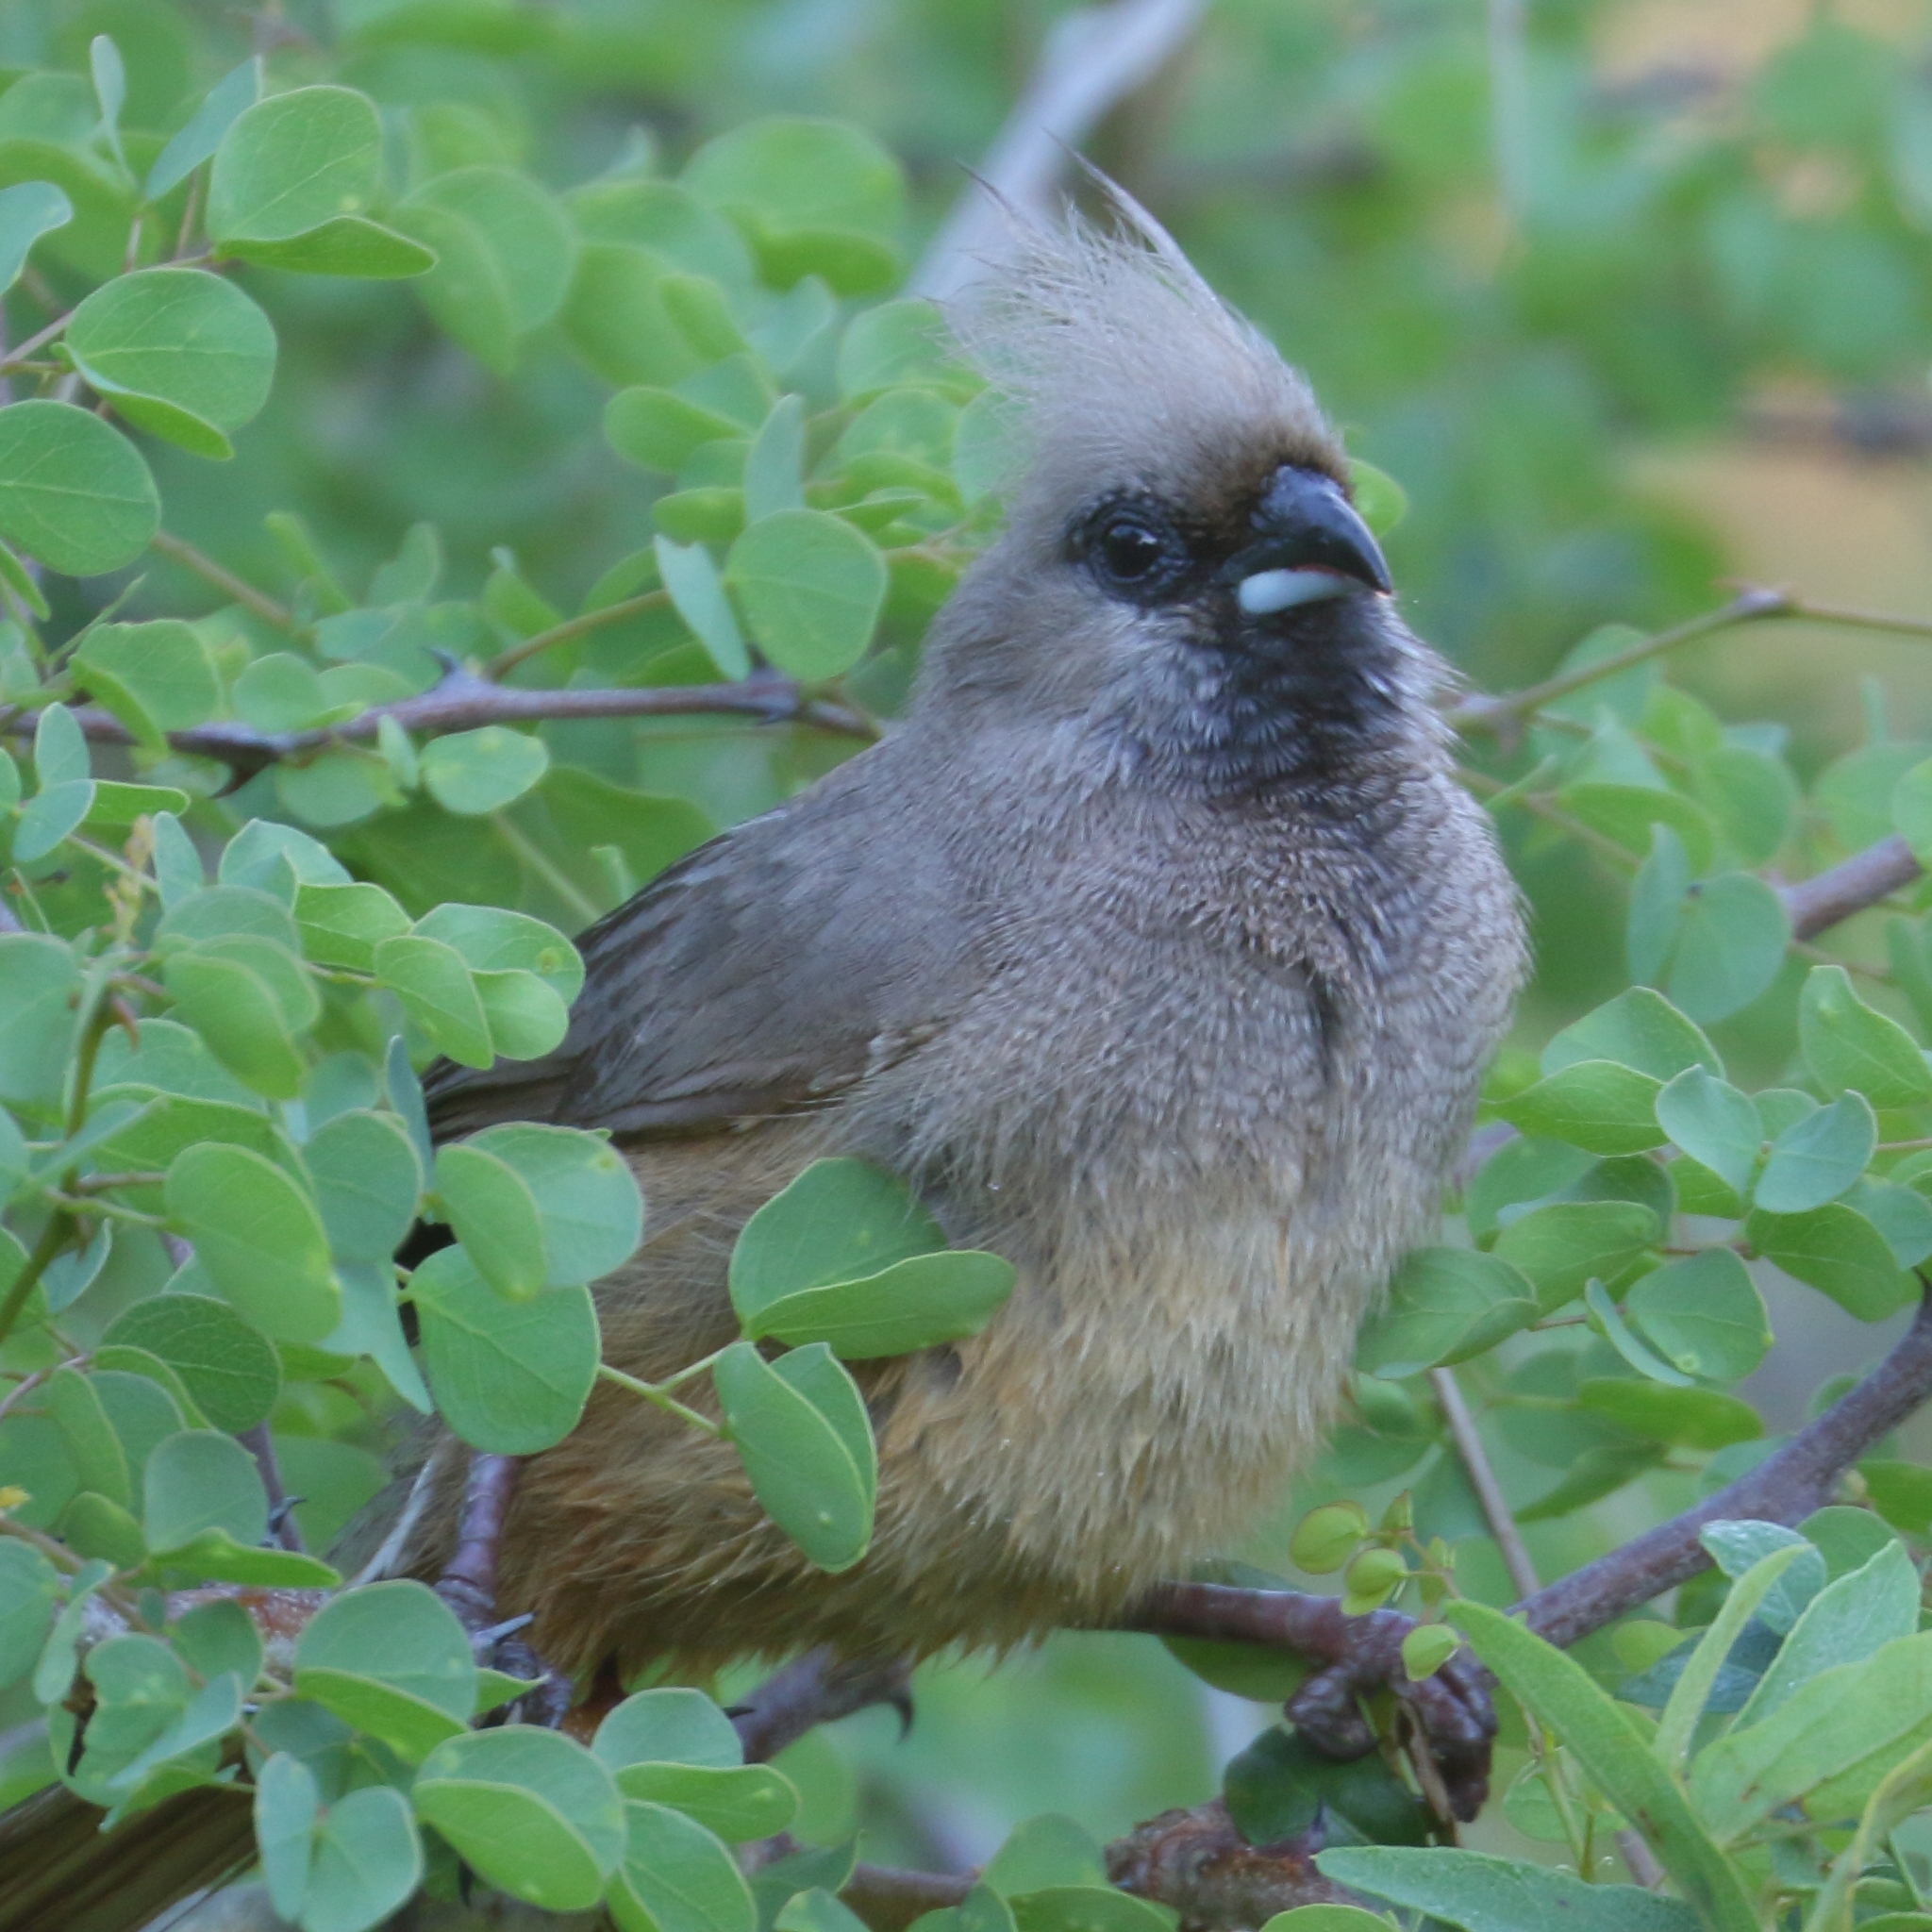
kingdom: Animalia
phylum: Chordata
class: Aves
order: Coliiformes
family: Coliidae
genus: Colius
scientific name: Colius striatus
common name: Speckled mousebird
